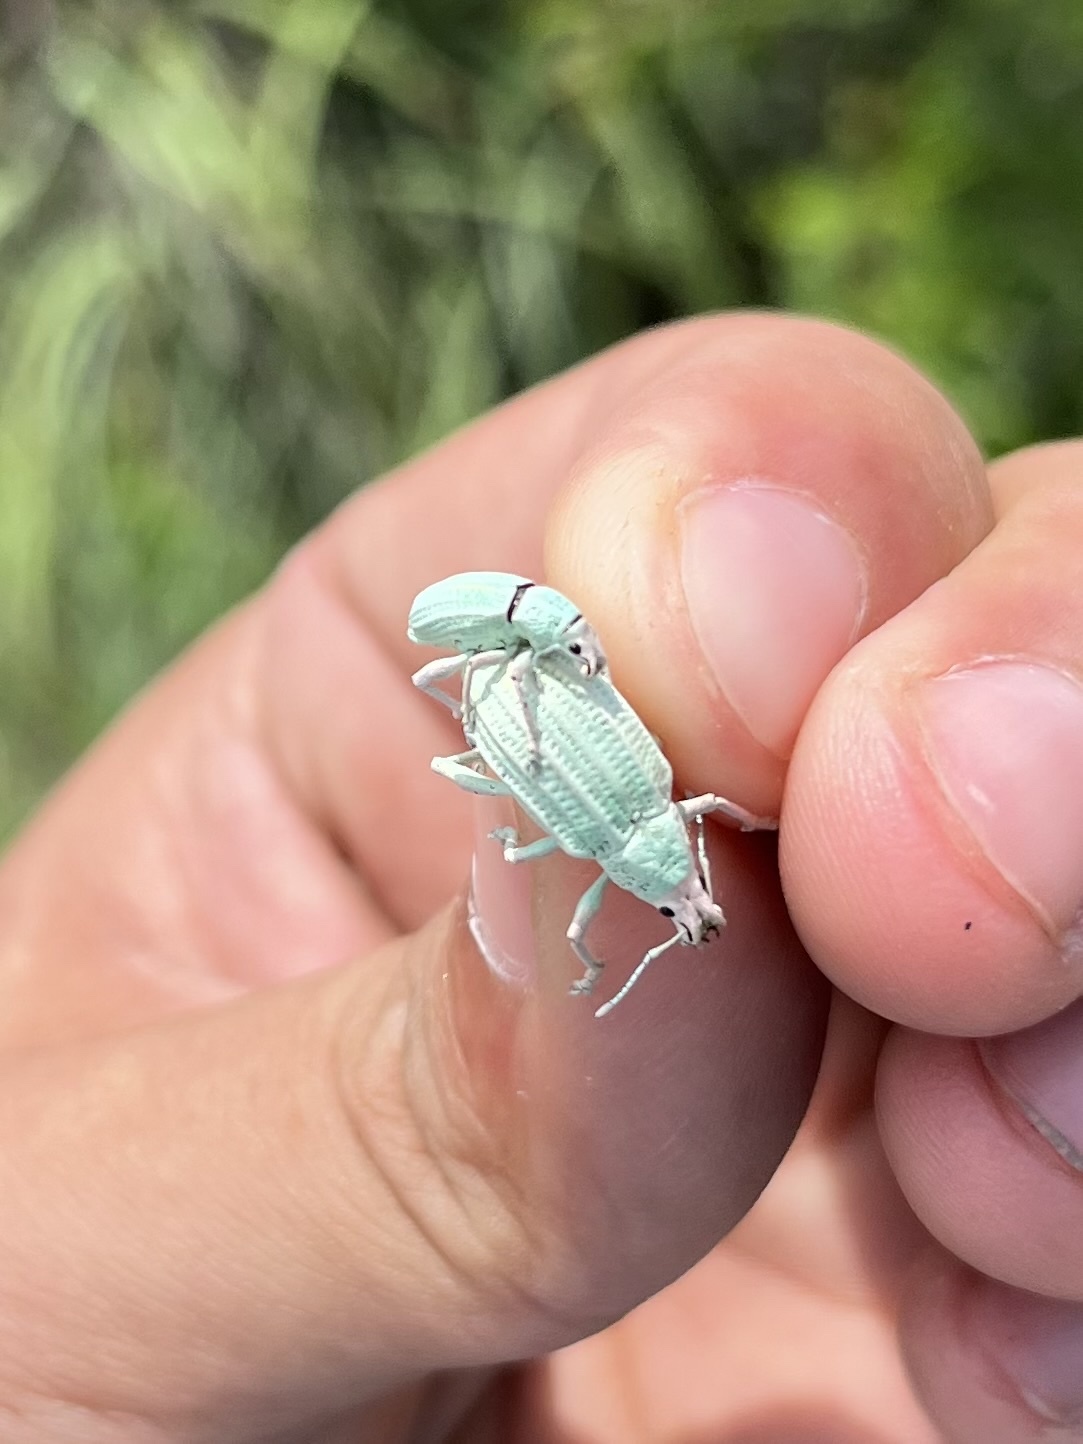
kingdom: Animalia
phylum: Arthropoda
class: Insecta
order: Coleoptera
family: Curculionidae
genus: Compsus
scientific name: Compsus auricephalus
